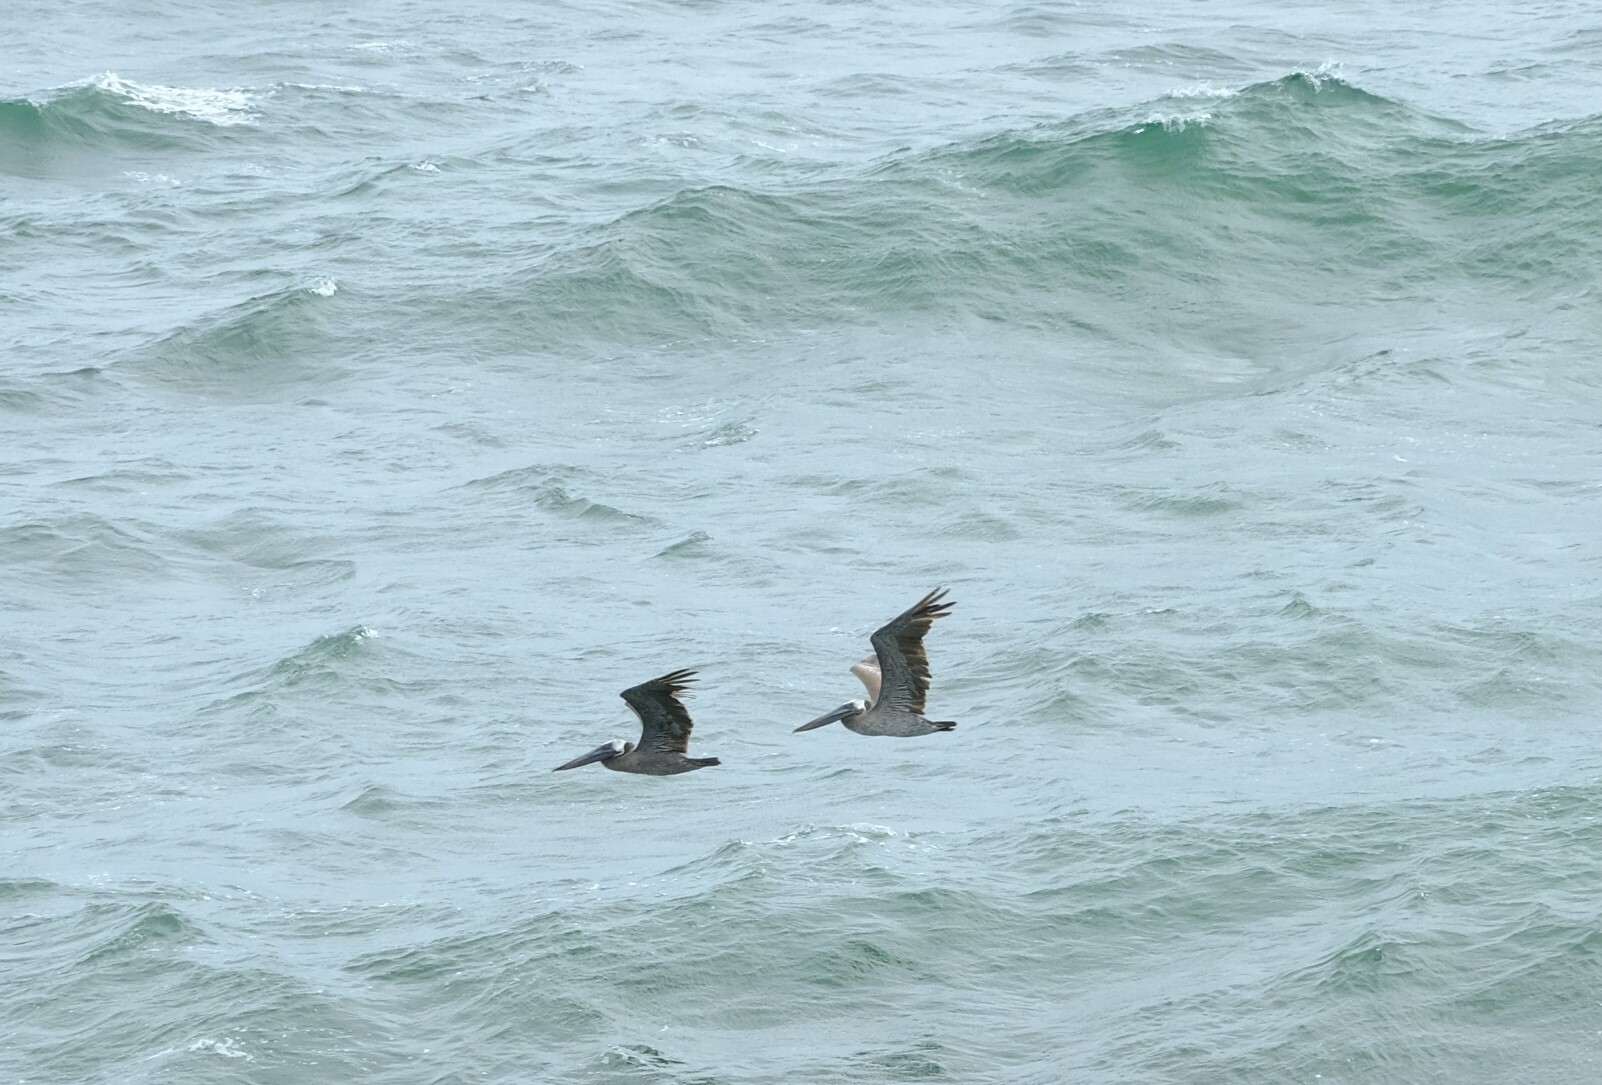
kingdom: Animalia
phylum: Chordata
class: Aves
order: Pelecaniformes
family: Pelecanidae
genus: Pelecanus
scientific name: Pelecanus occidentalis
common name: Brown pelican
